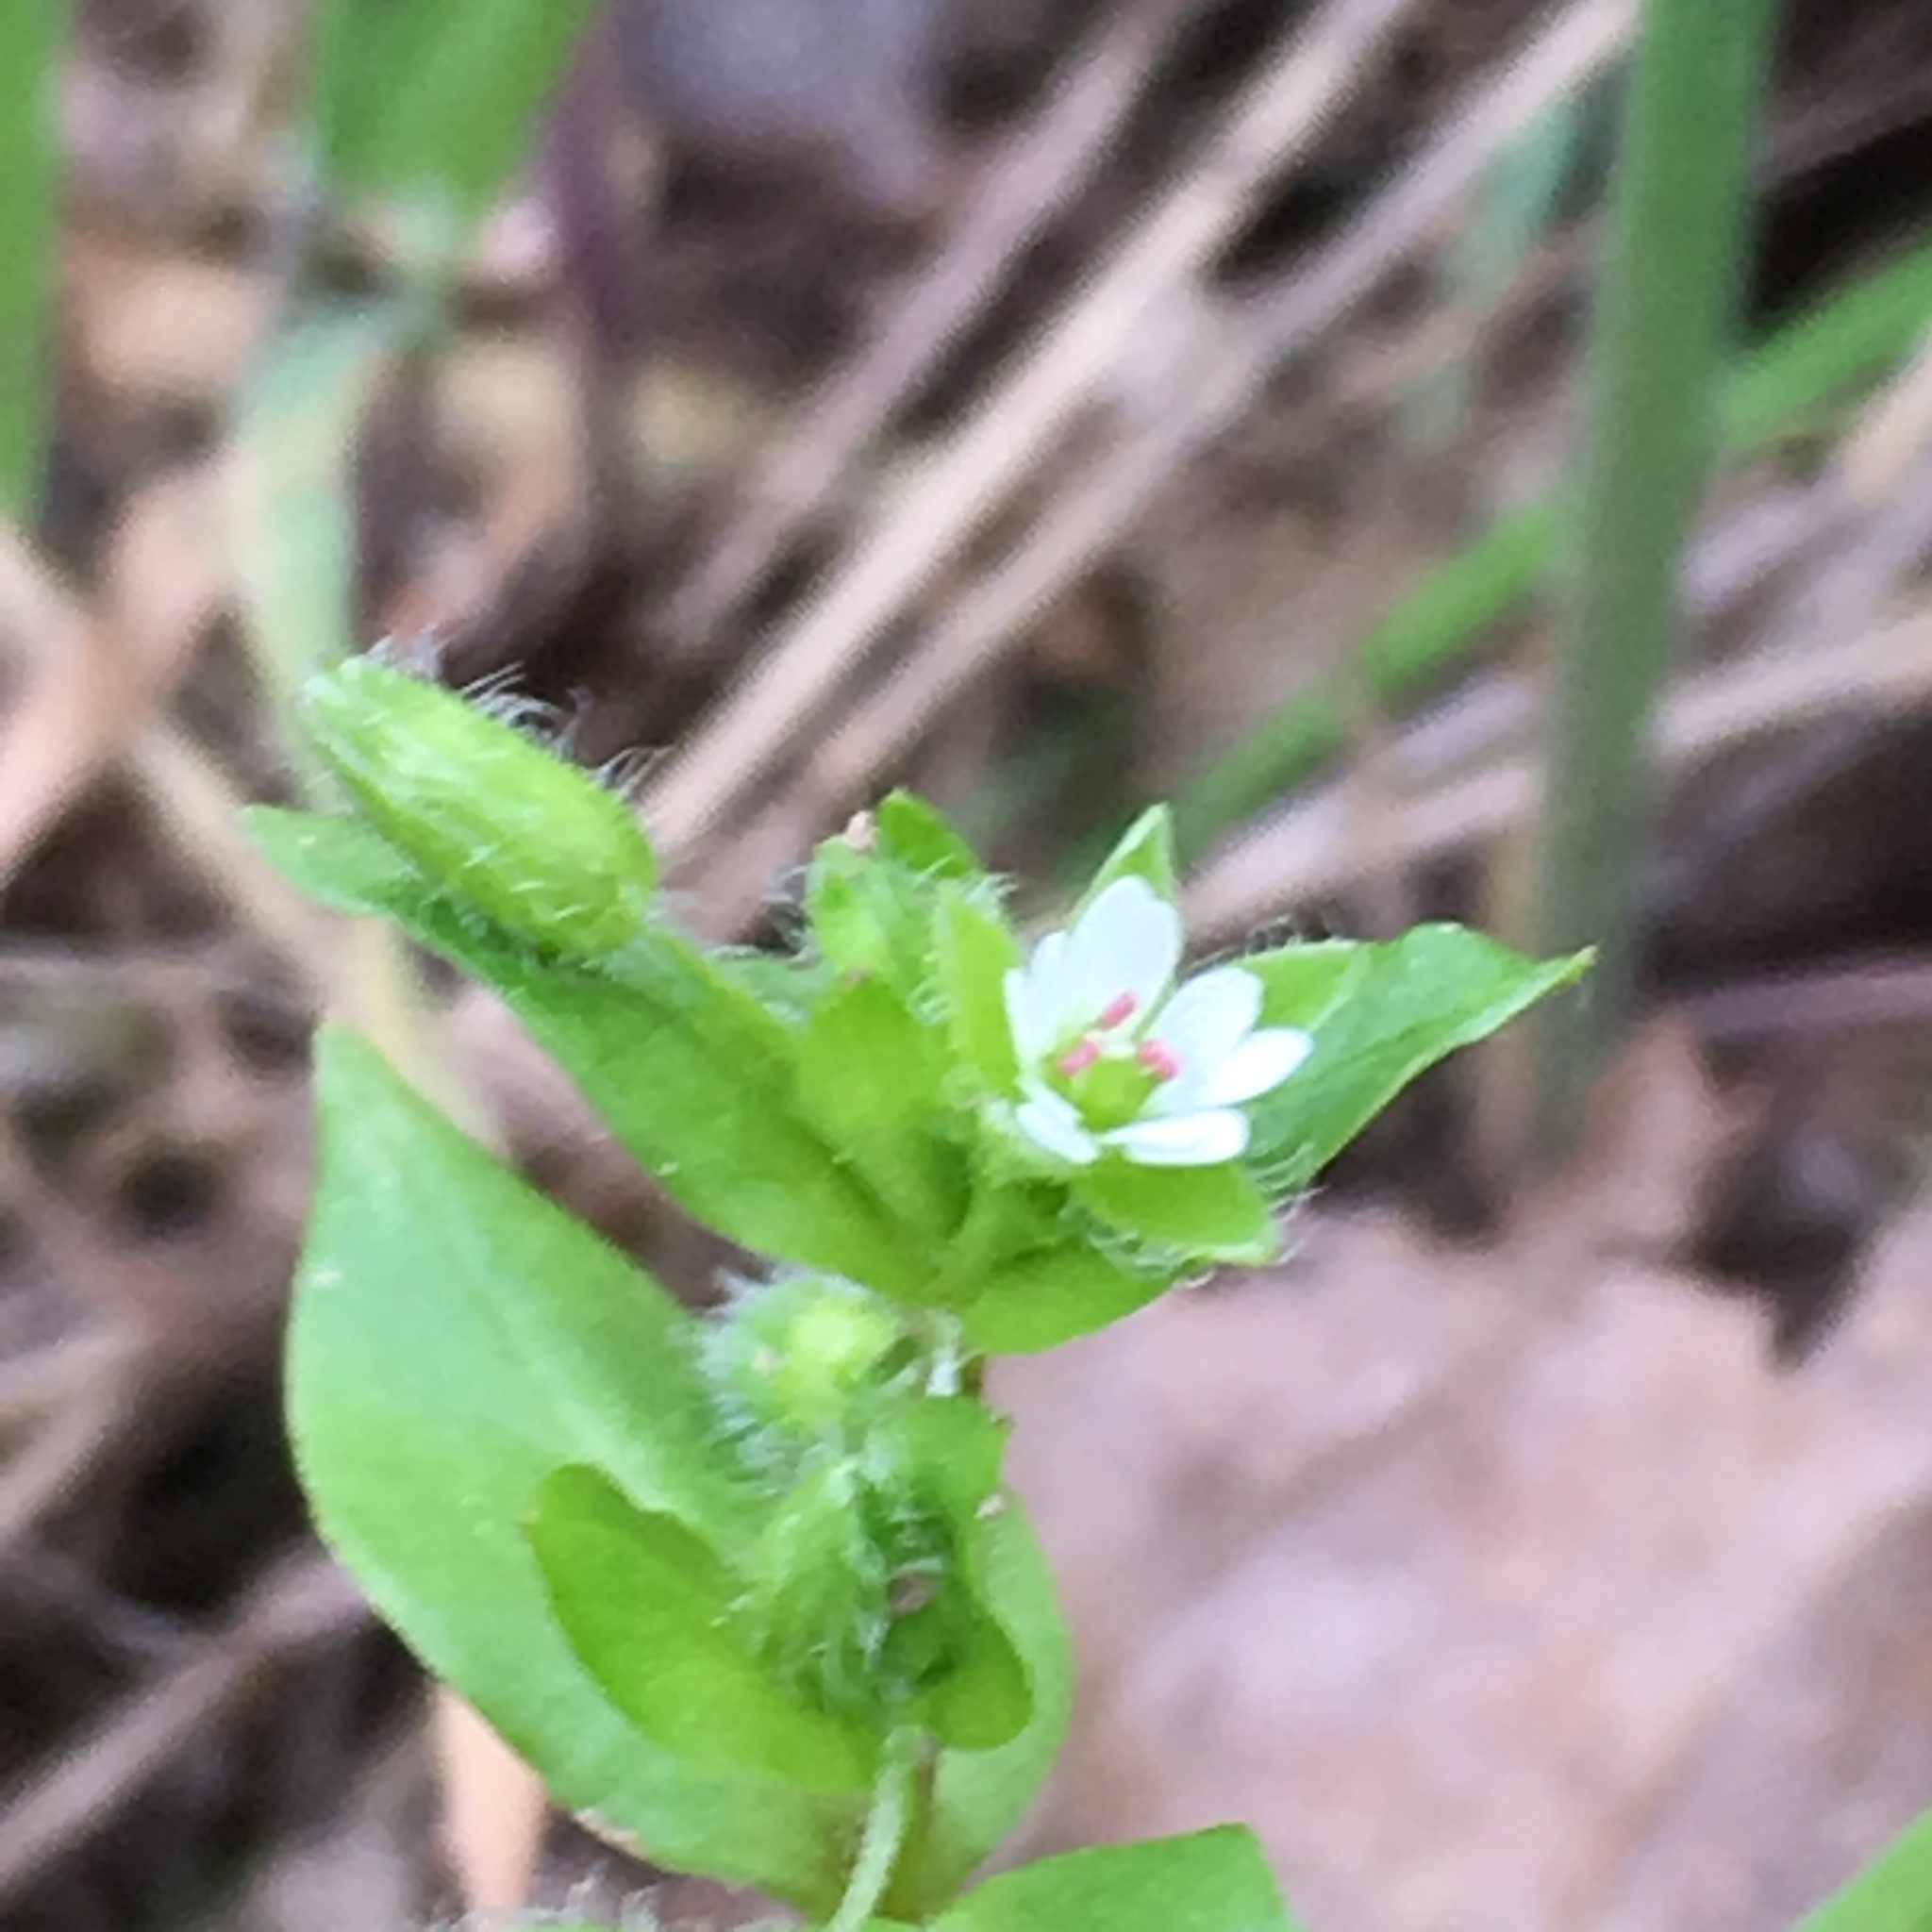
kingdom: Plantae
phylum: Tracheophyta
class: Magnoliopsida
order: Caryophyllales
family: Caryophyllaceae
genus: Stellaria
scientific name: Stellaria media
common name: Common chickweed
